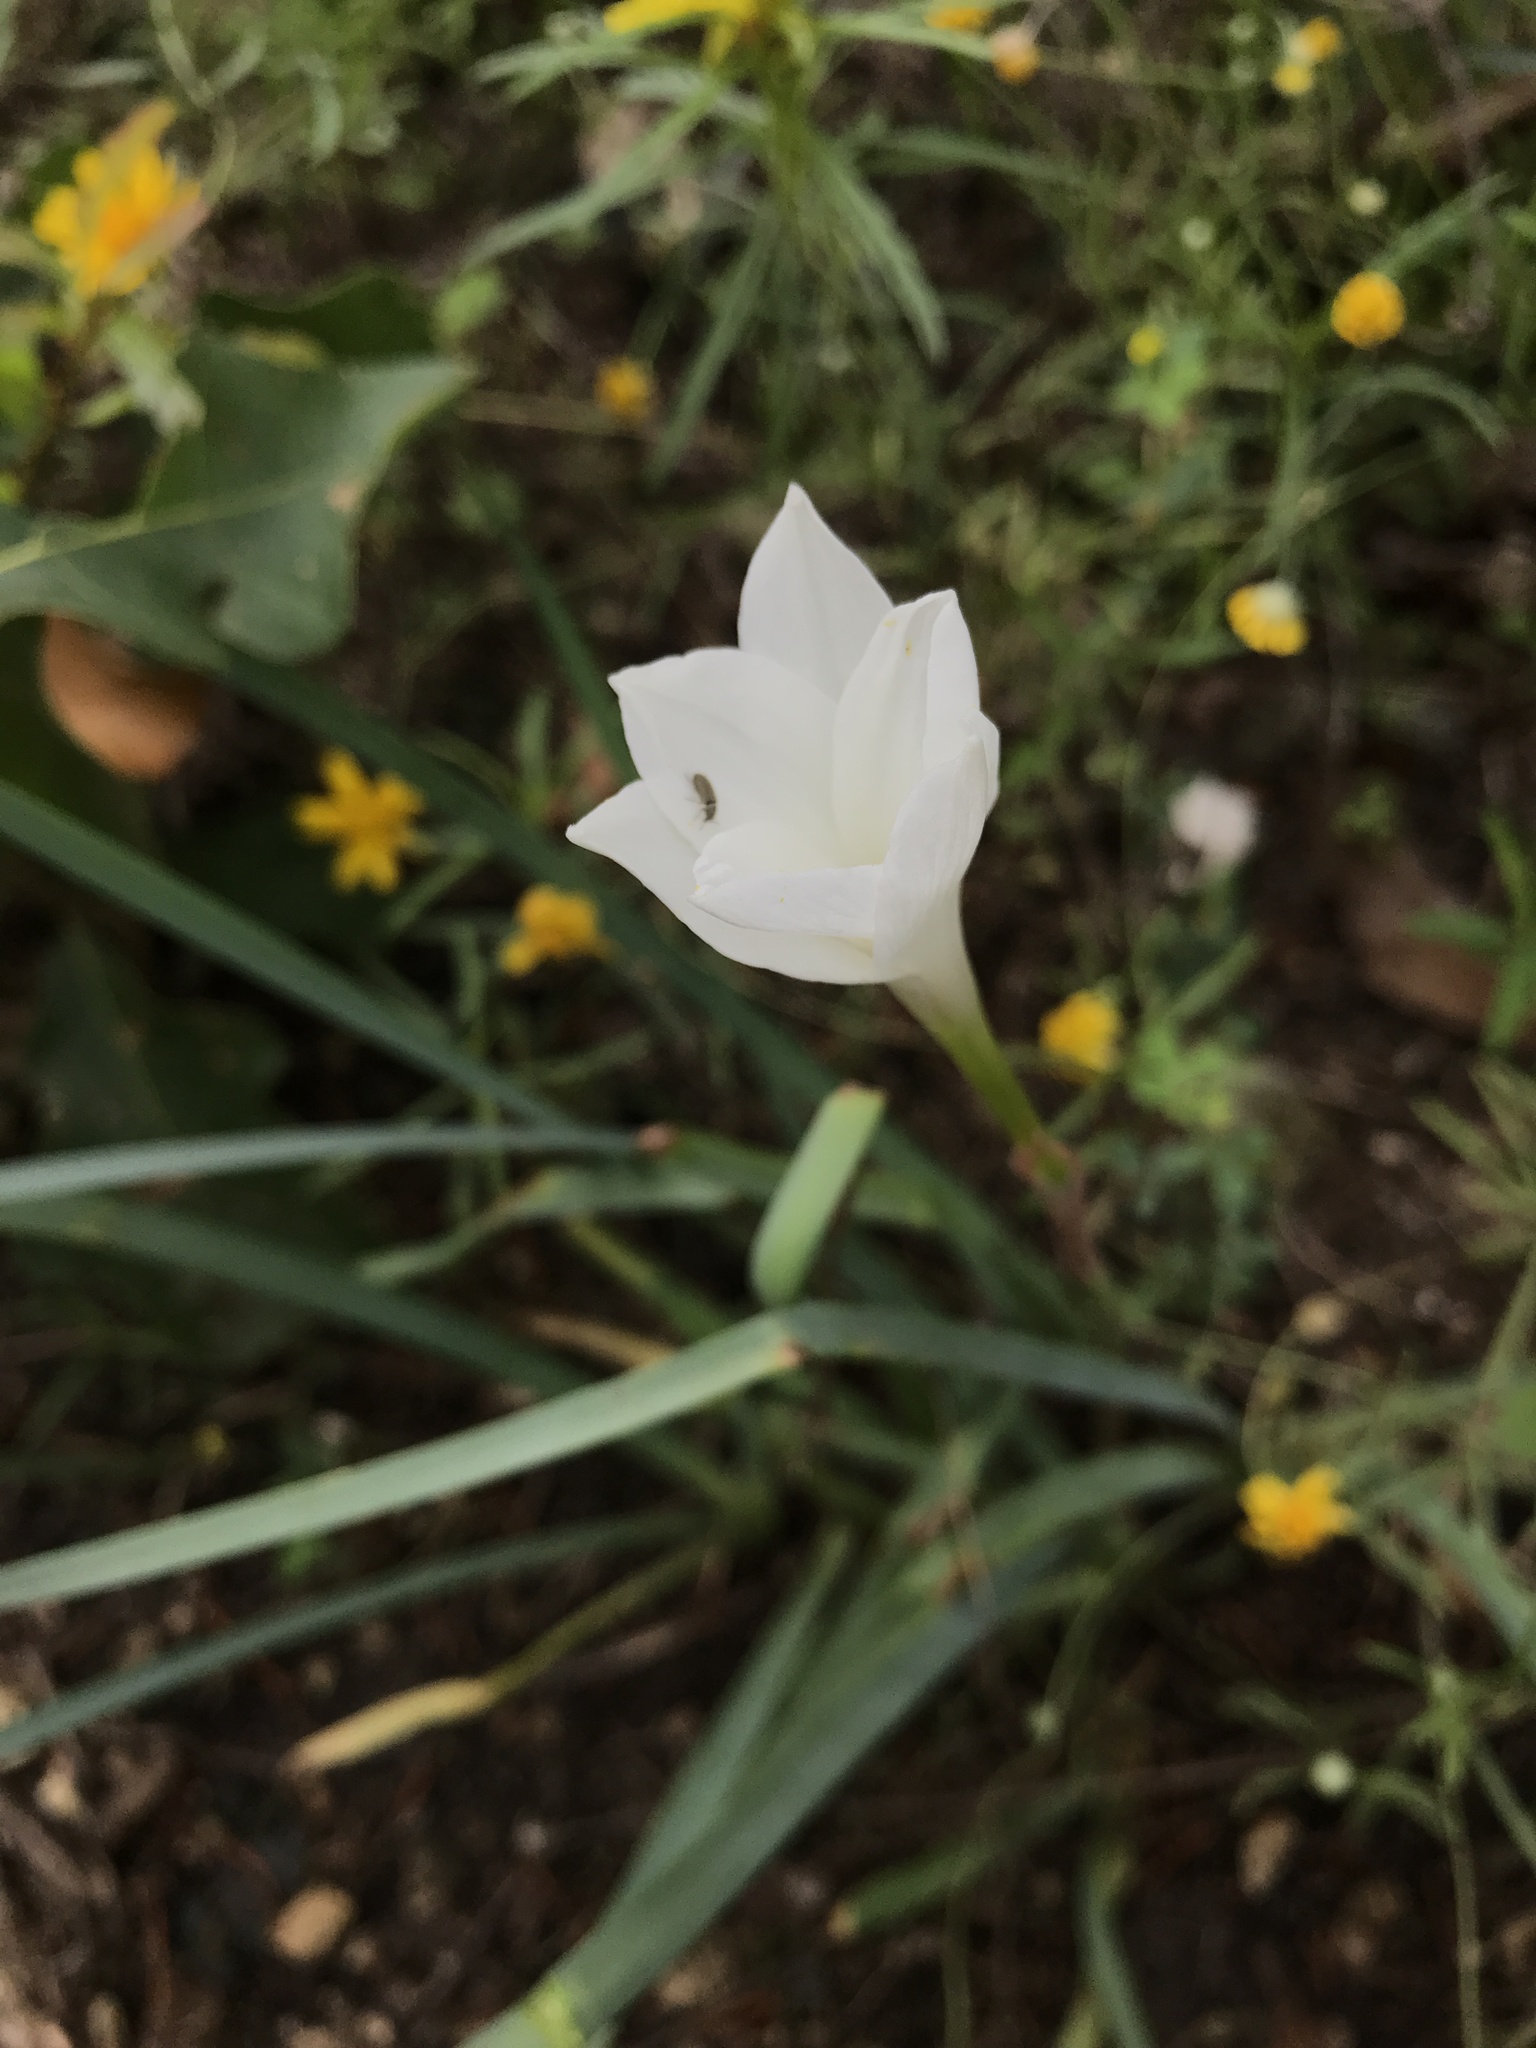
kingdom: Plantae
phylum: Tracheophyta
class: Liliopsida
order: Asparagales
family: Amaryllidaceae
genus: Zephyranthes
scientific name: Zephyranthes drummondii
